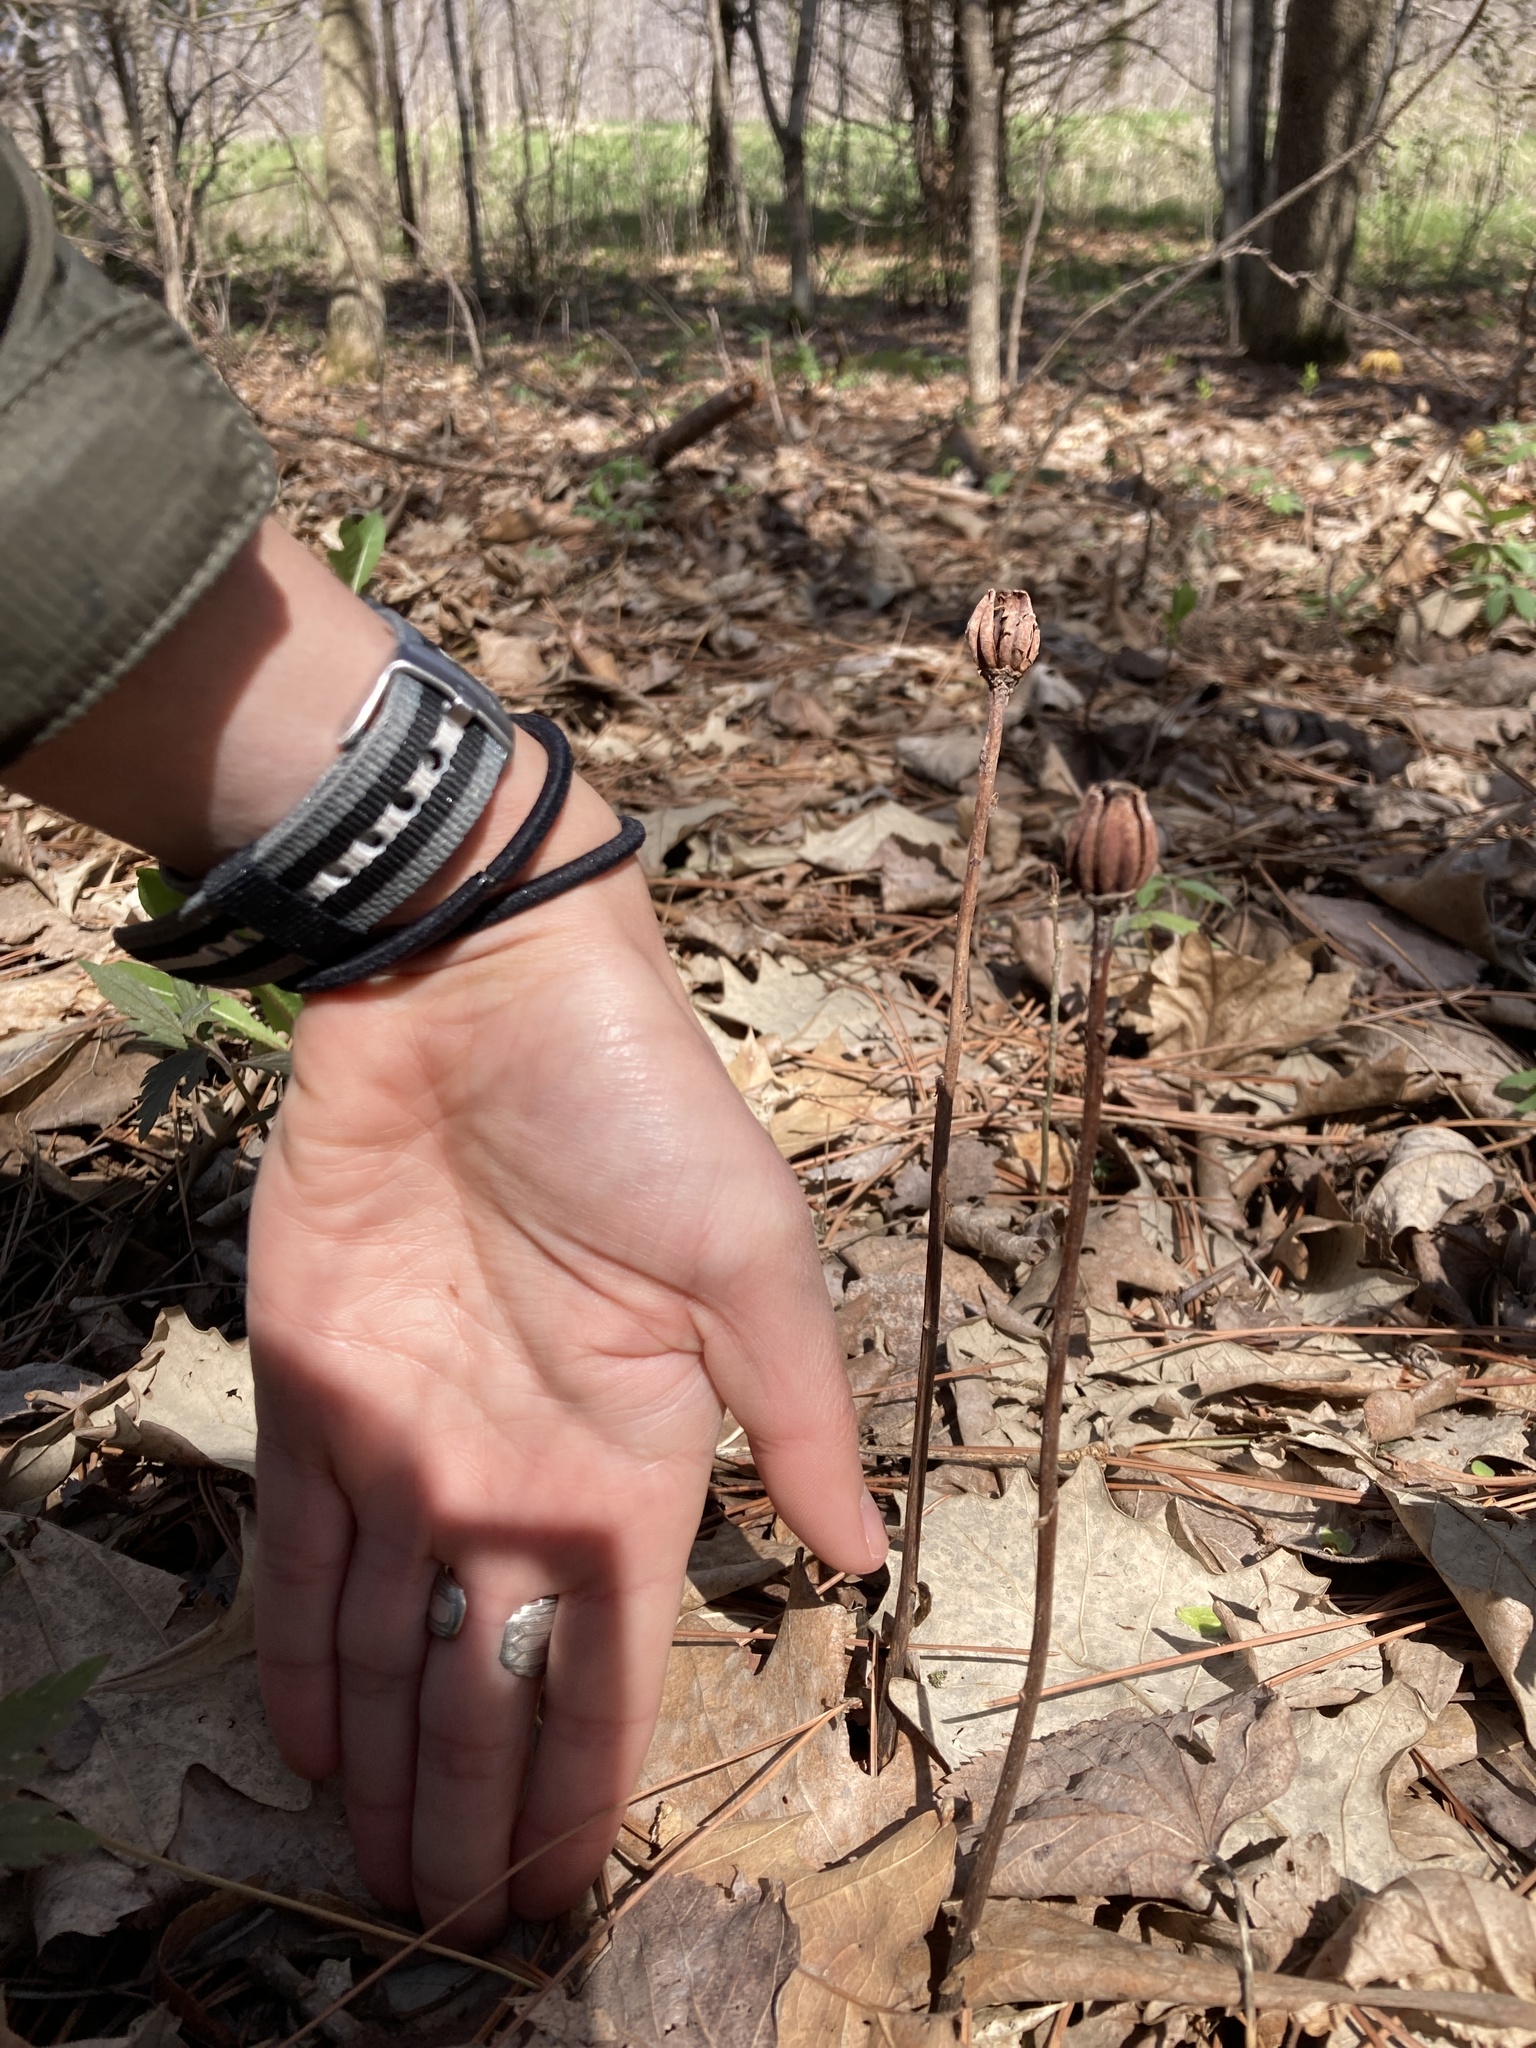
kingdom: Plantae
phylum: Tracheophyta
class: Magnoliopsida
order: Ericales
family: Ericaceae
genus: Monotropa
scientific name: Monotropa uniflora
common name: Convulsion root
